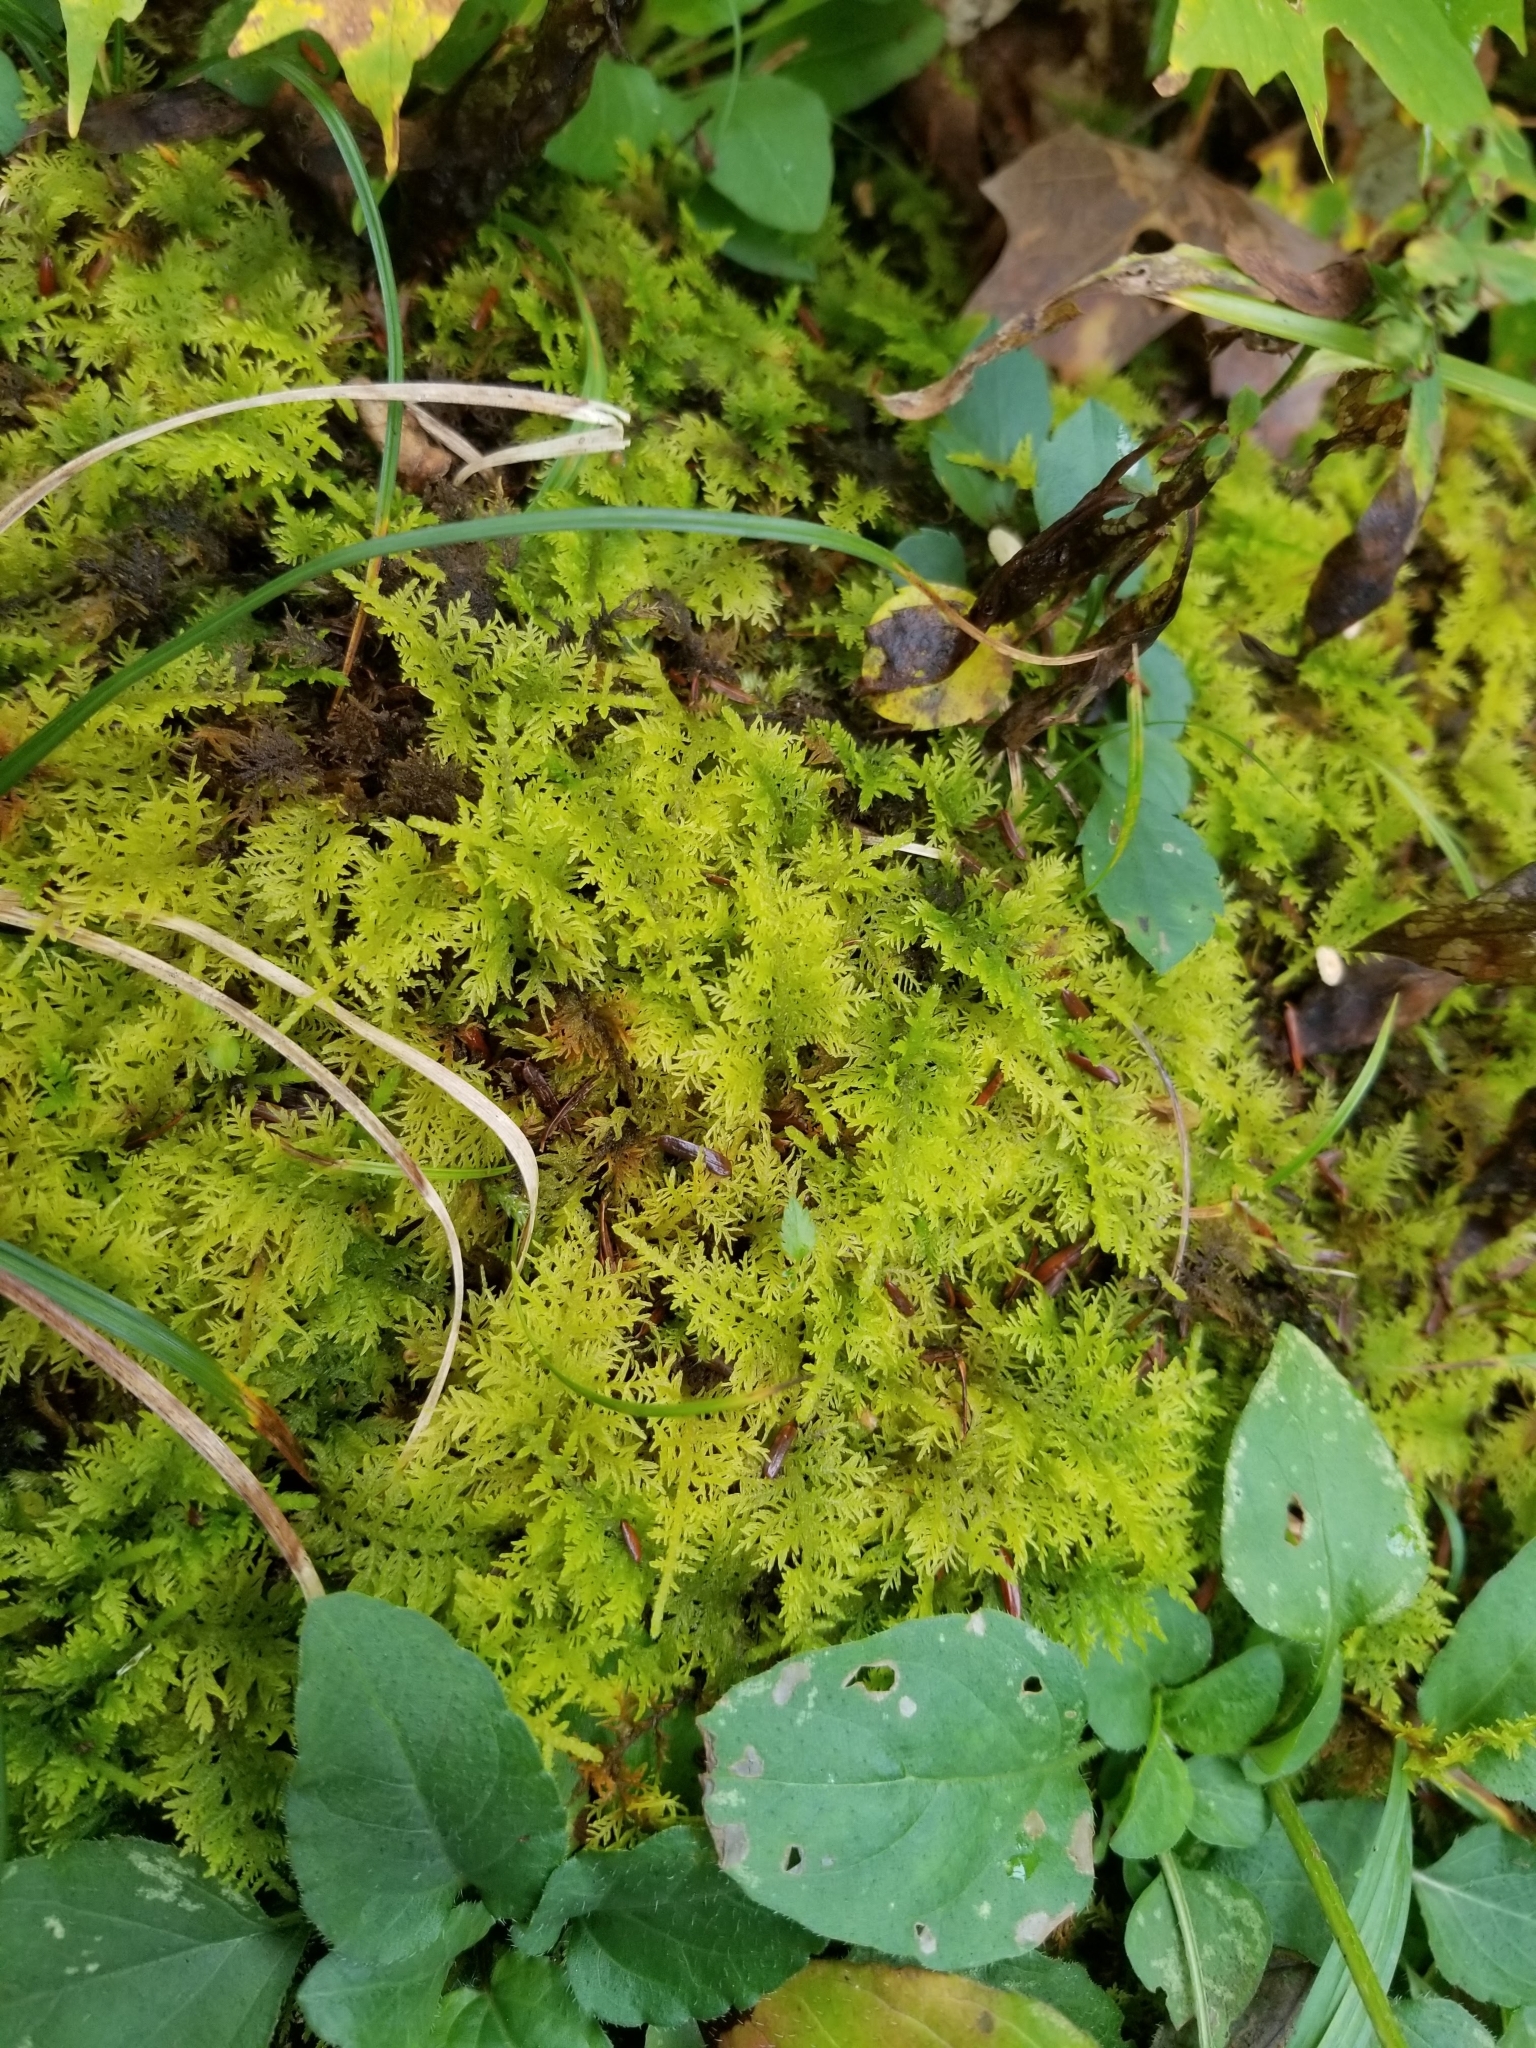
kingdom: Plantae
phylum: Bryophyta
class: Bryopsida
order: Hypnales
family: Thuidiaceae
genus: Thuidium
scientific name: Thuidium delicatulum
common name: Delicate fern moss
